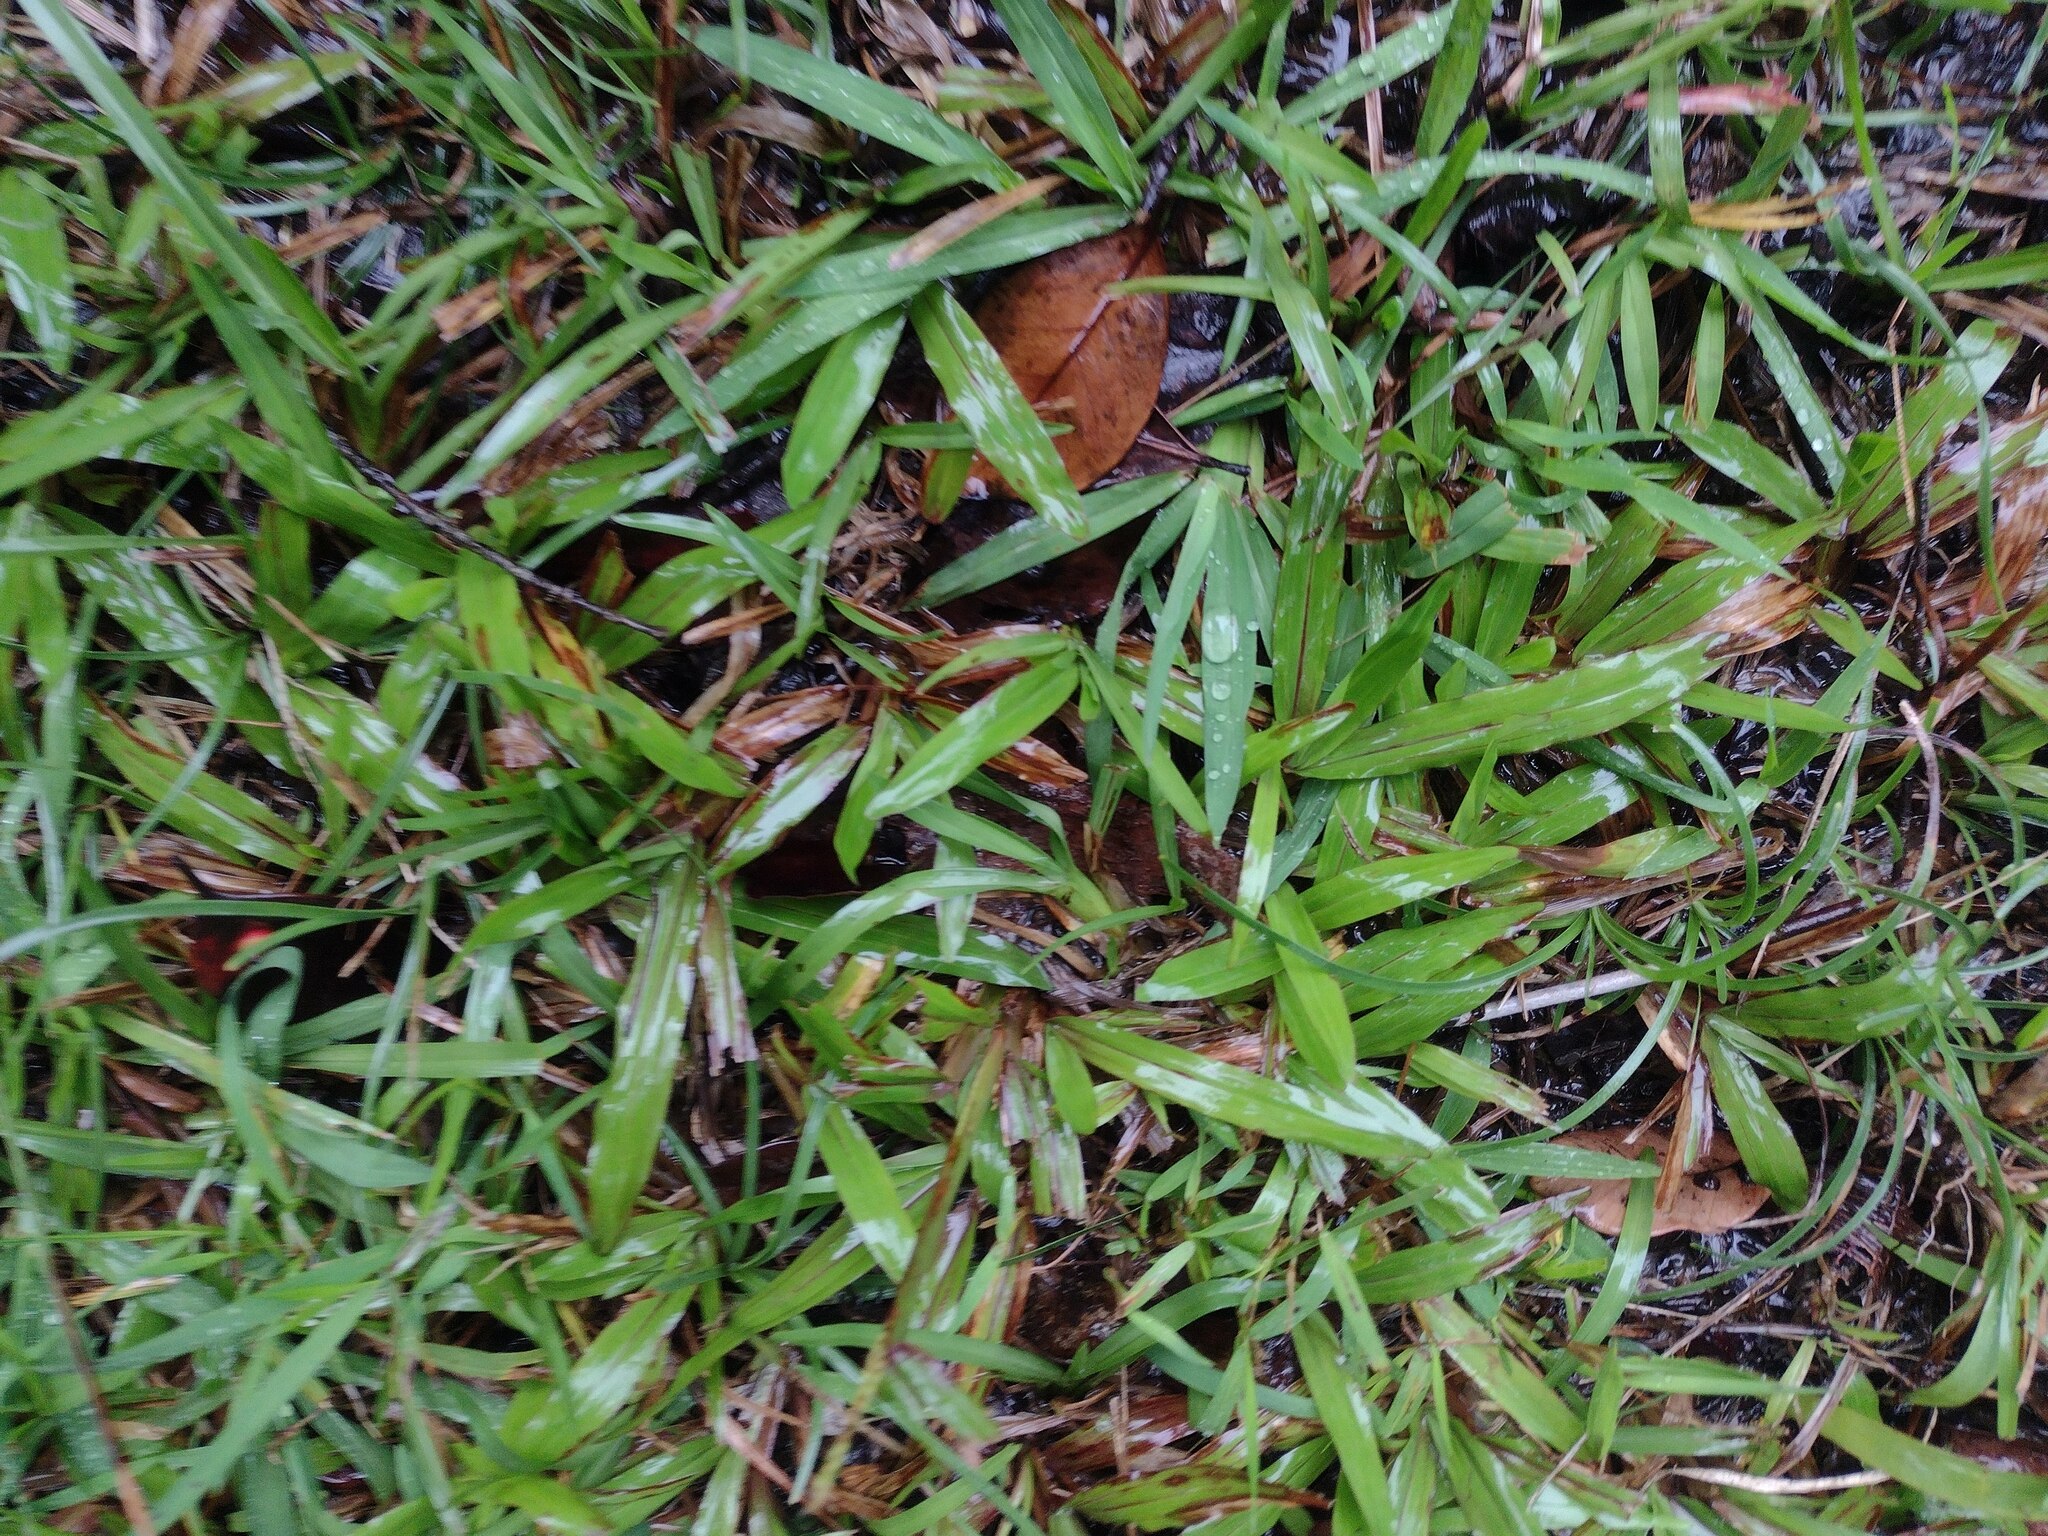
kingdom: Plantae
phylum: Tracheophyta
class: Liliopsida
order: Poales
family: Poaceae
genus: Axonopus
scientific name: Axonopus compressus
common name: American carpet grass
